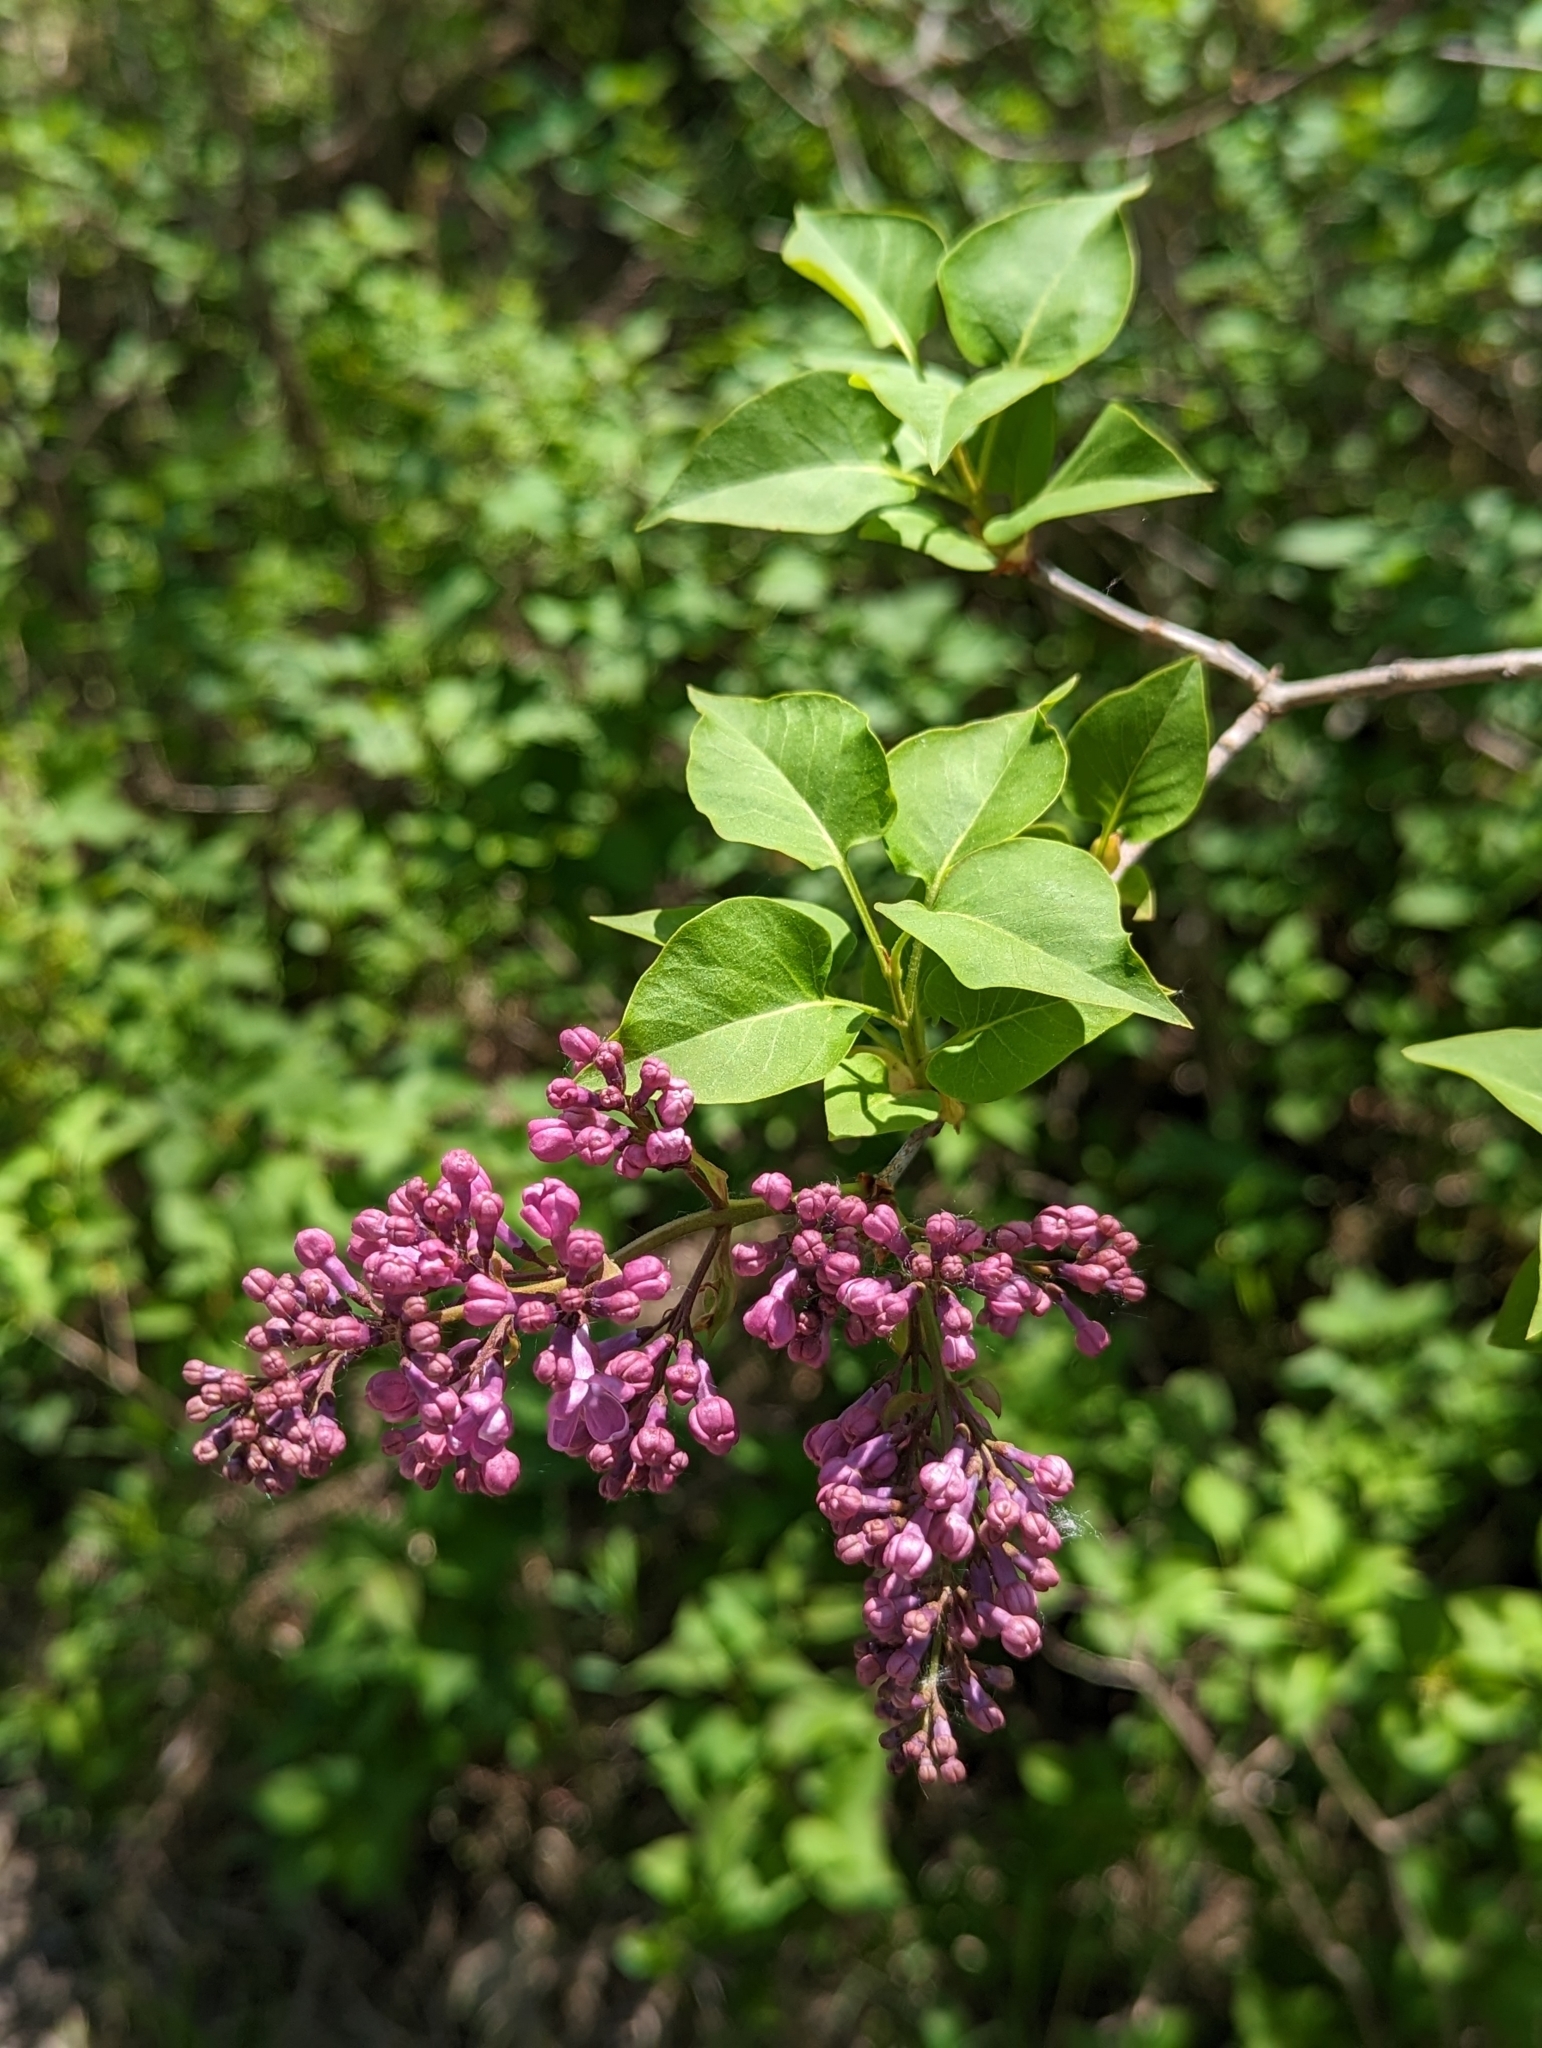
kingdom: Plantae
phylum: Tracheophyta
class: Magnoliopsida
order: Lamiales
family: Oleaceae
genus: Syringa
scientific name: Syringa vulgaris
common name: Common lilac
